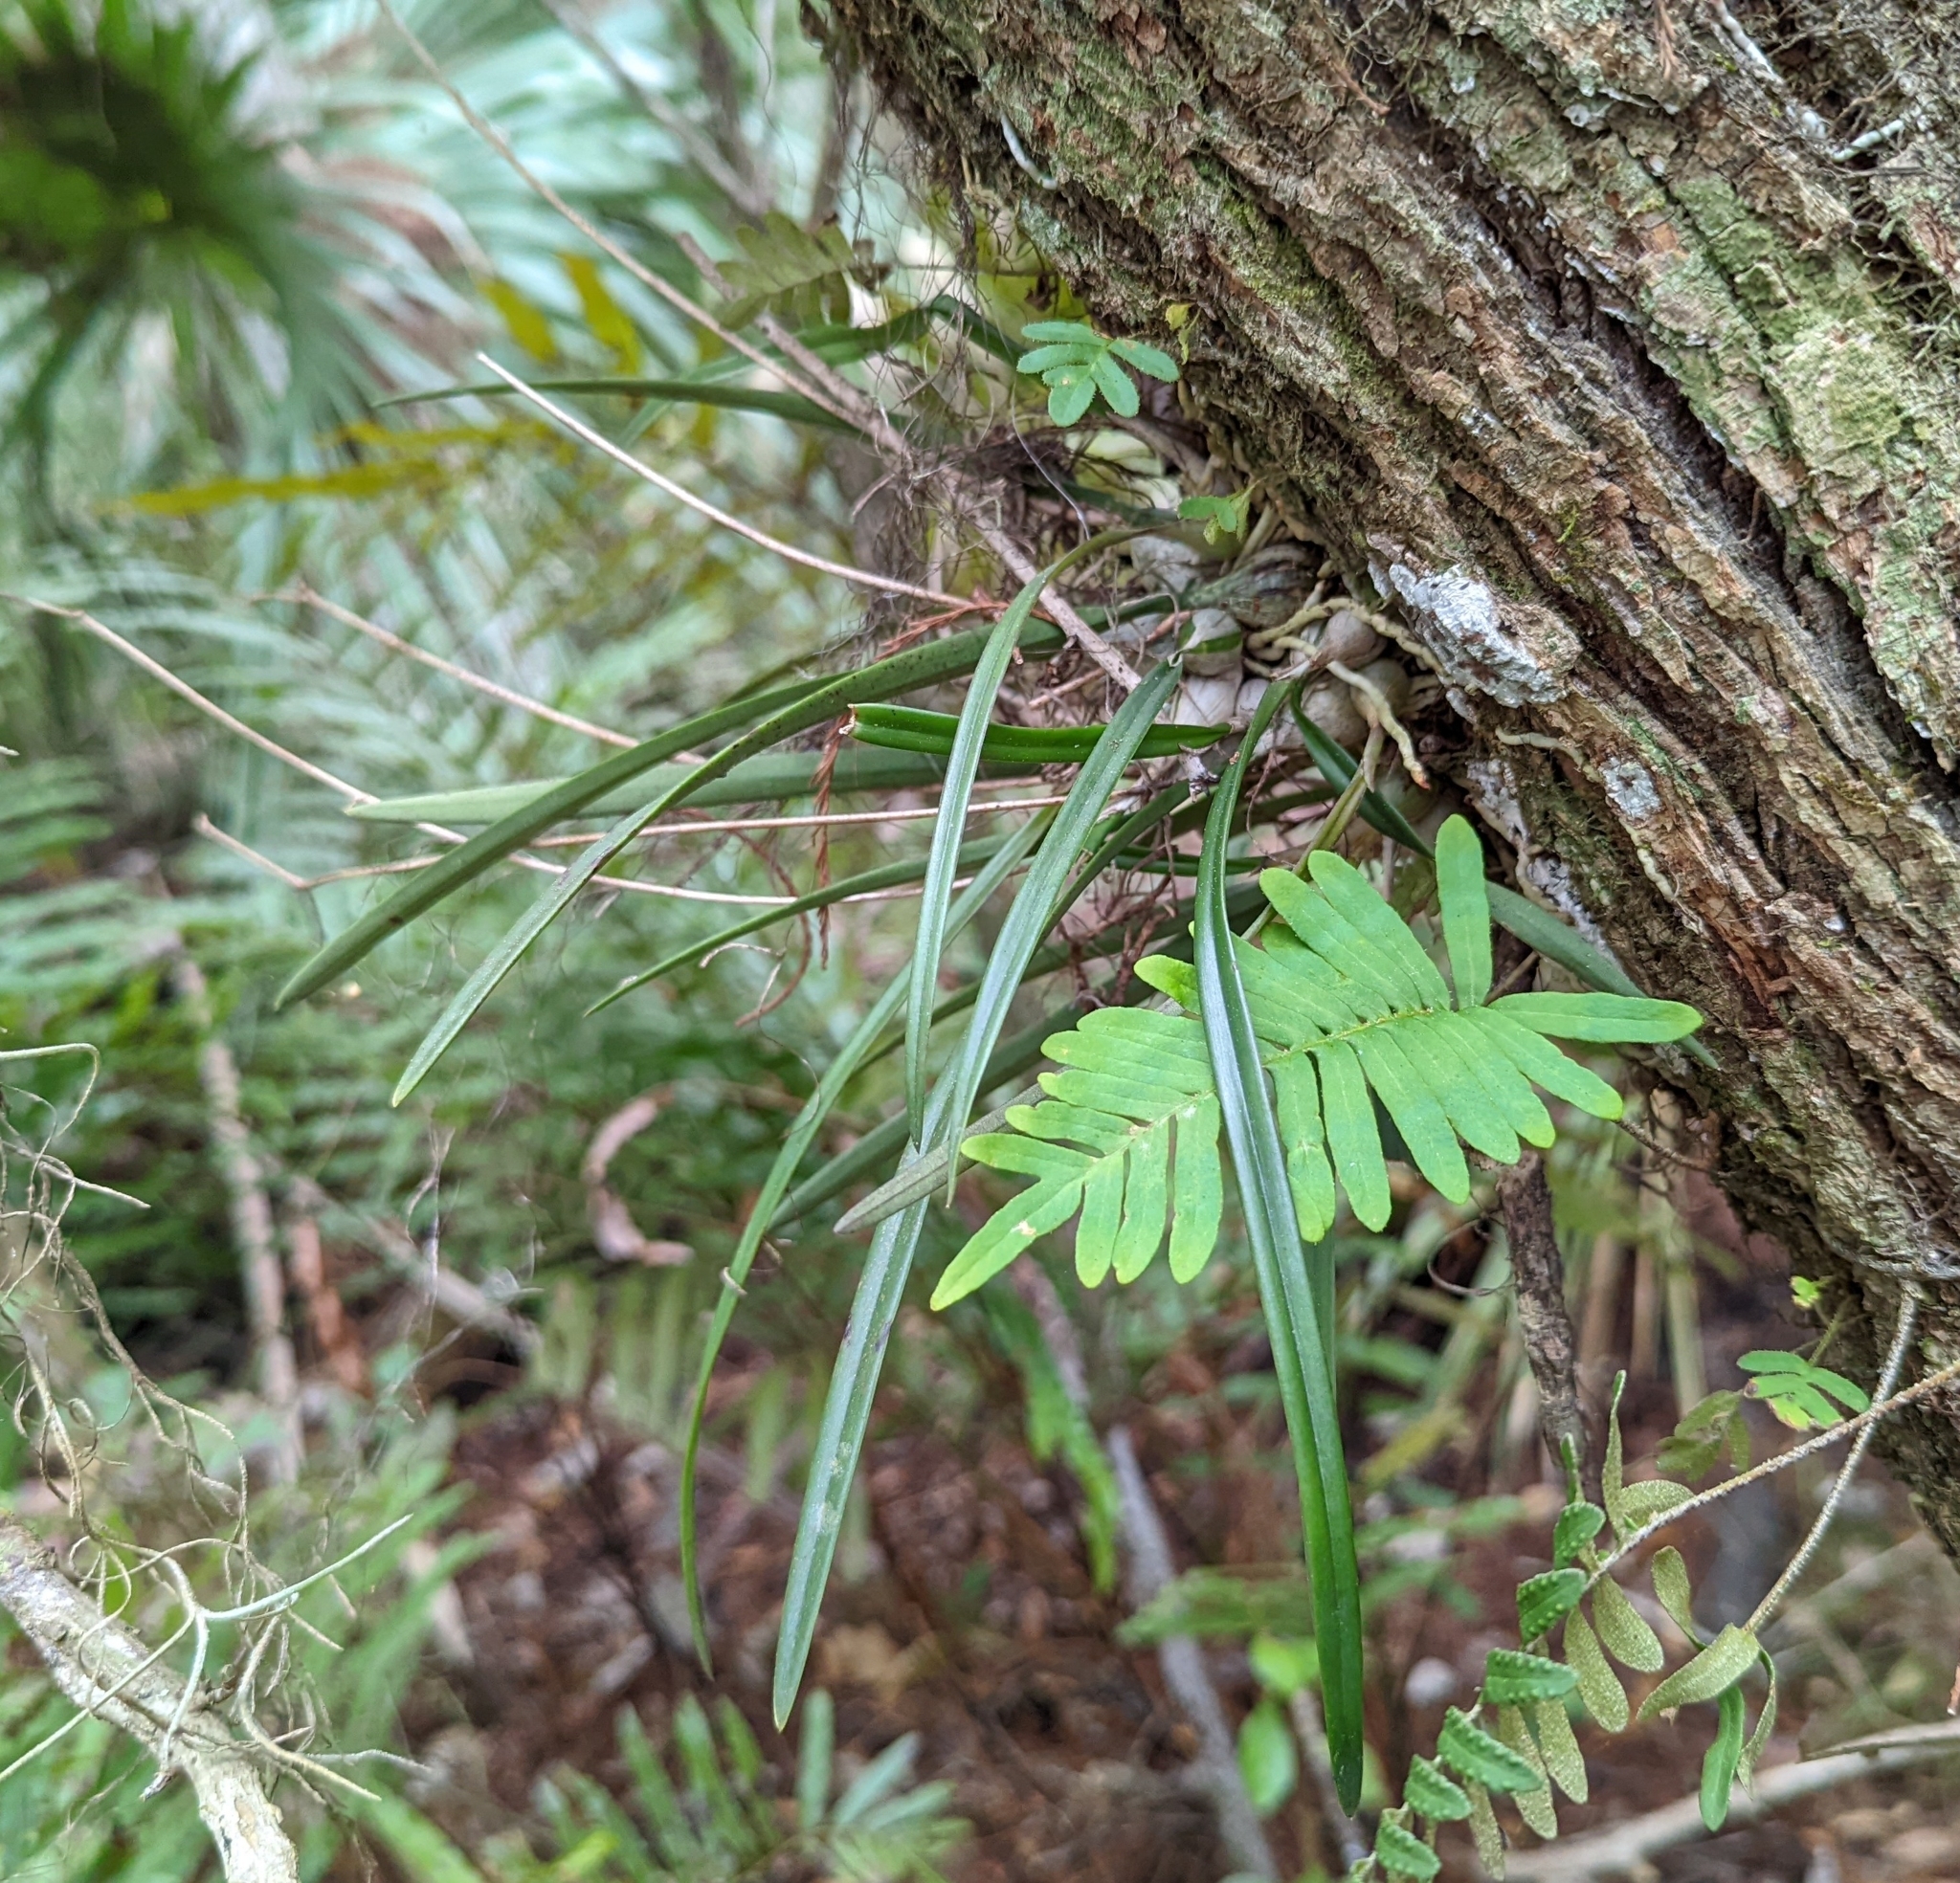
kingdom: Plantae
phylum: Tracheophyta
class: Liliopsida
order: Asparagales
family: Orchidaceae
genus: Encyclia
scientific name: Encyclia tampensis
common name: Florida butterfly orchid
